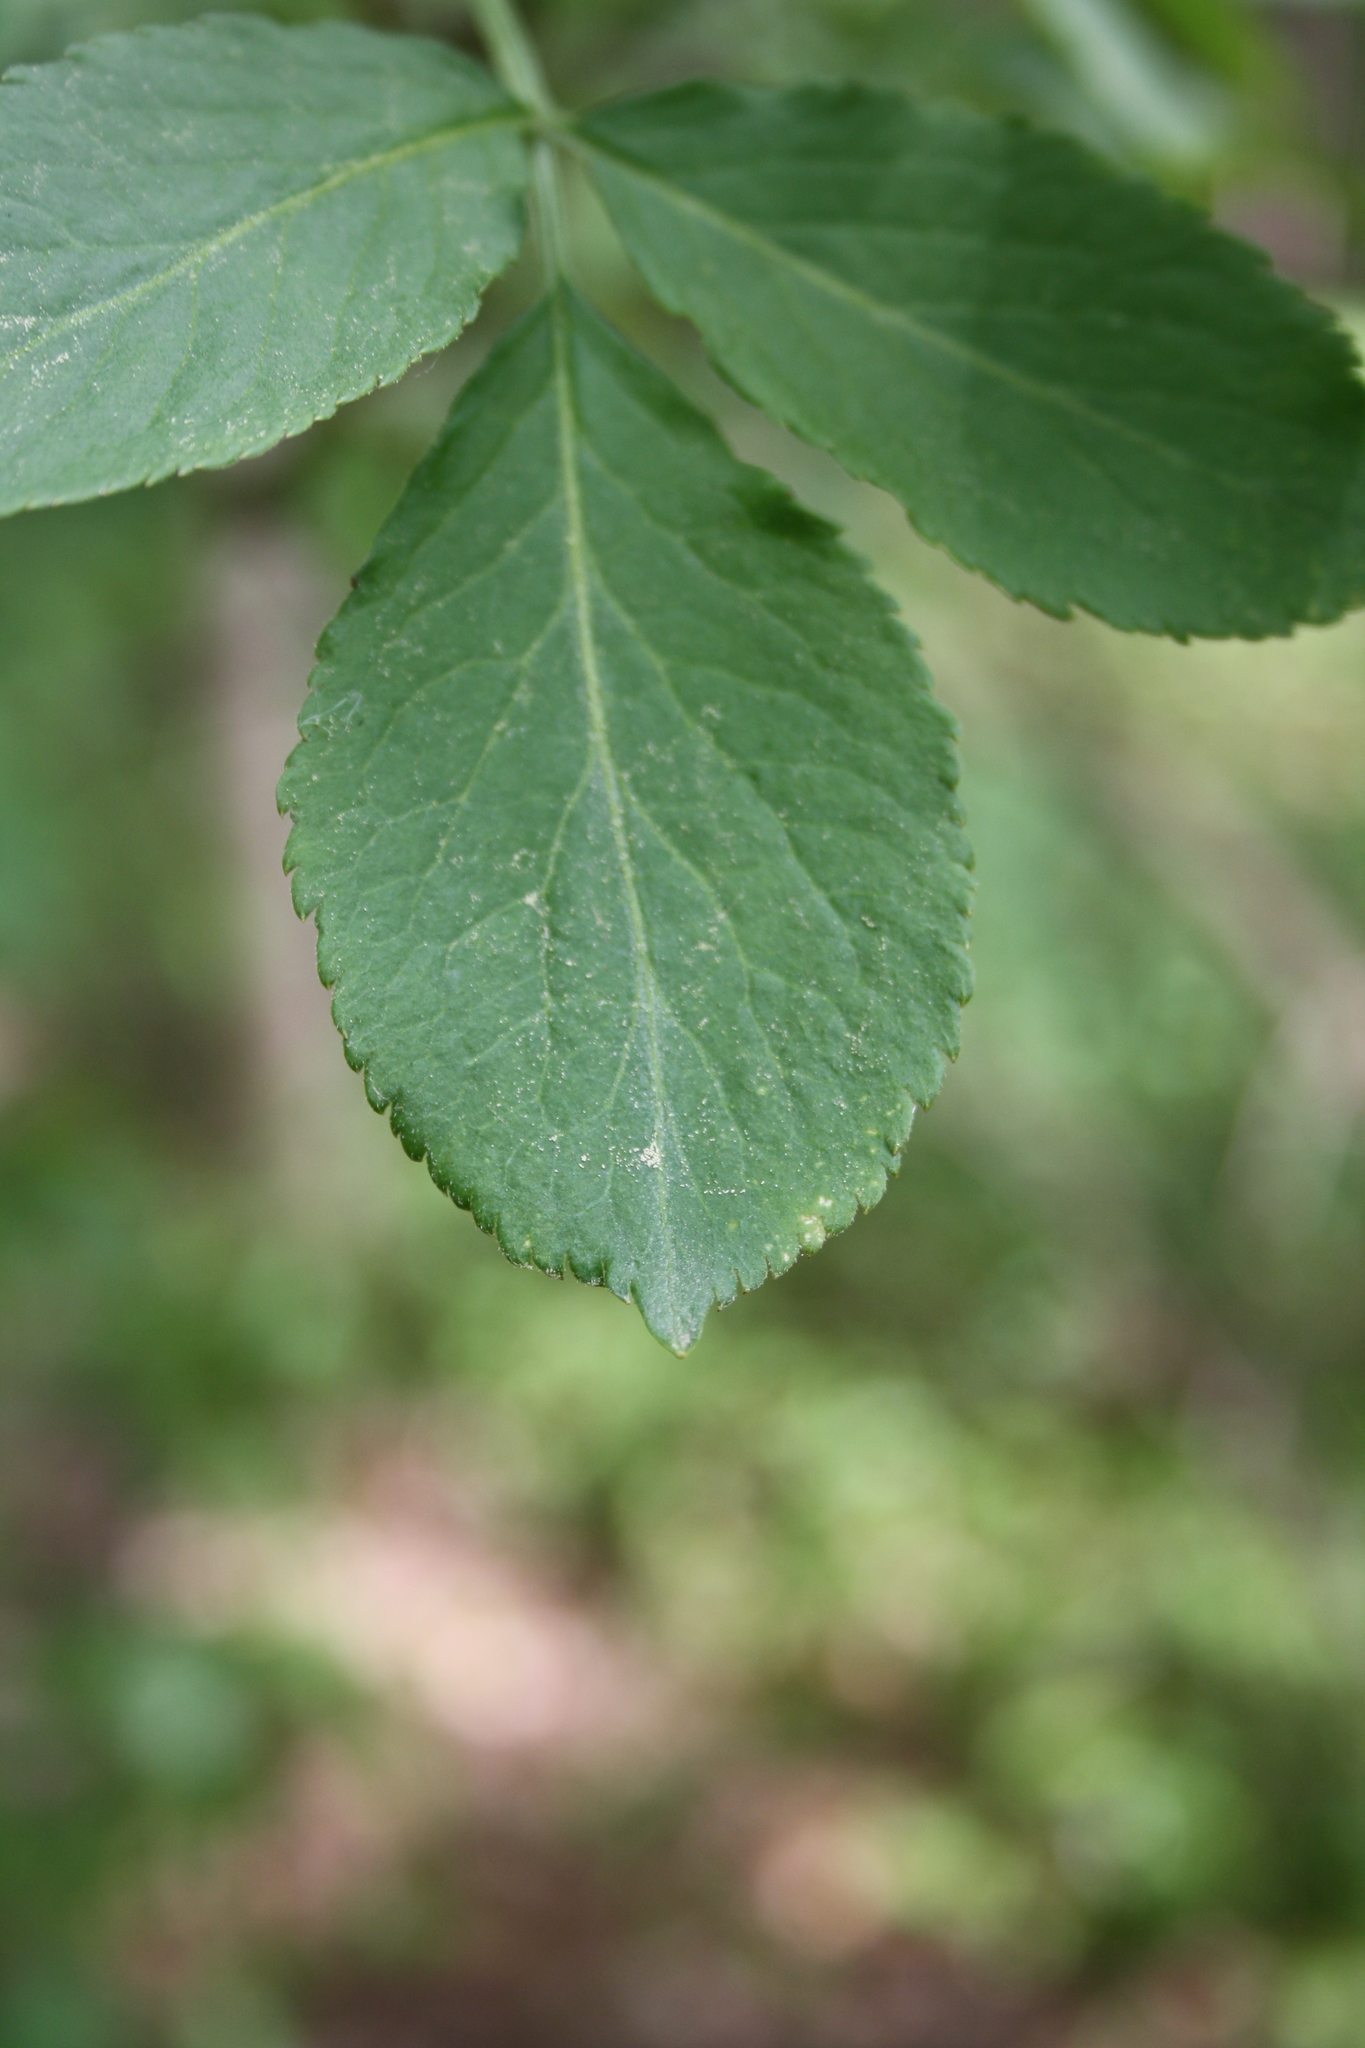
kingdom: Plantae
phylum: Tracheophyta
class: Magnoliopsida
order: Dipsacales
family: Viburnaceae
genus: Sambucus
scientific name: Sambucus nigra
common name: Elder
